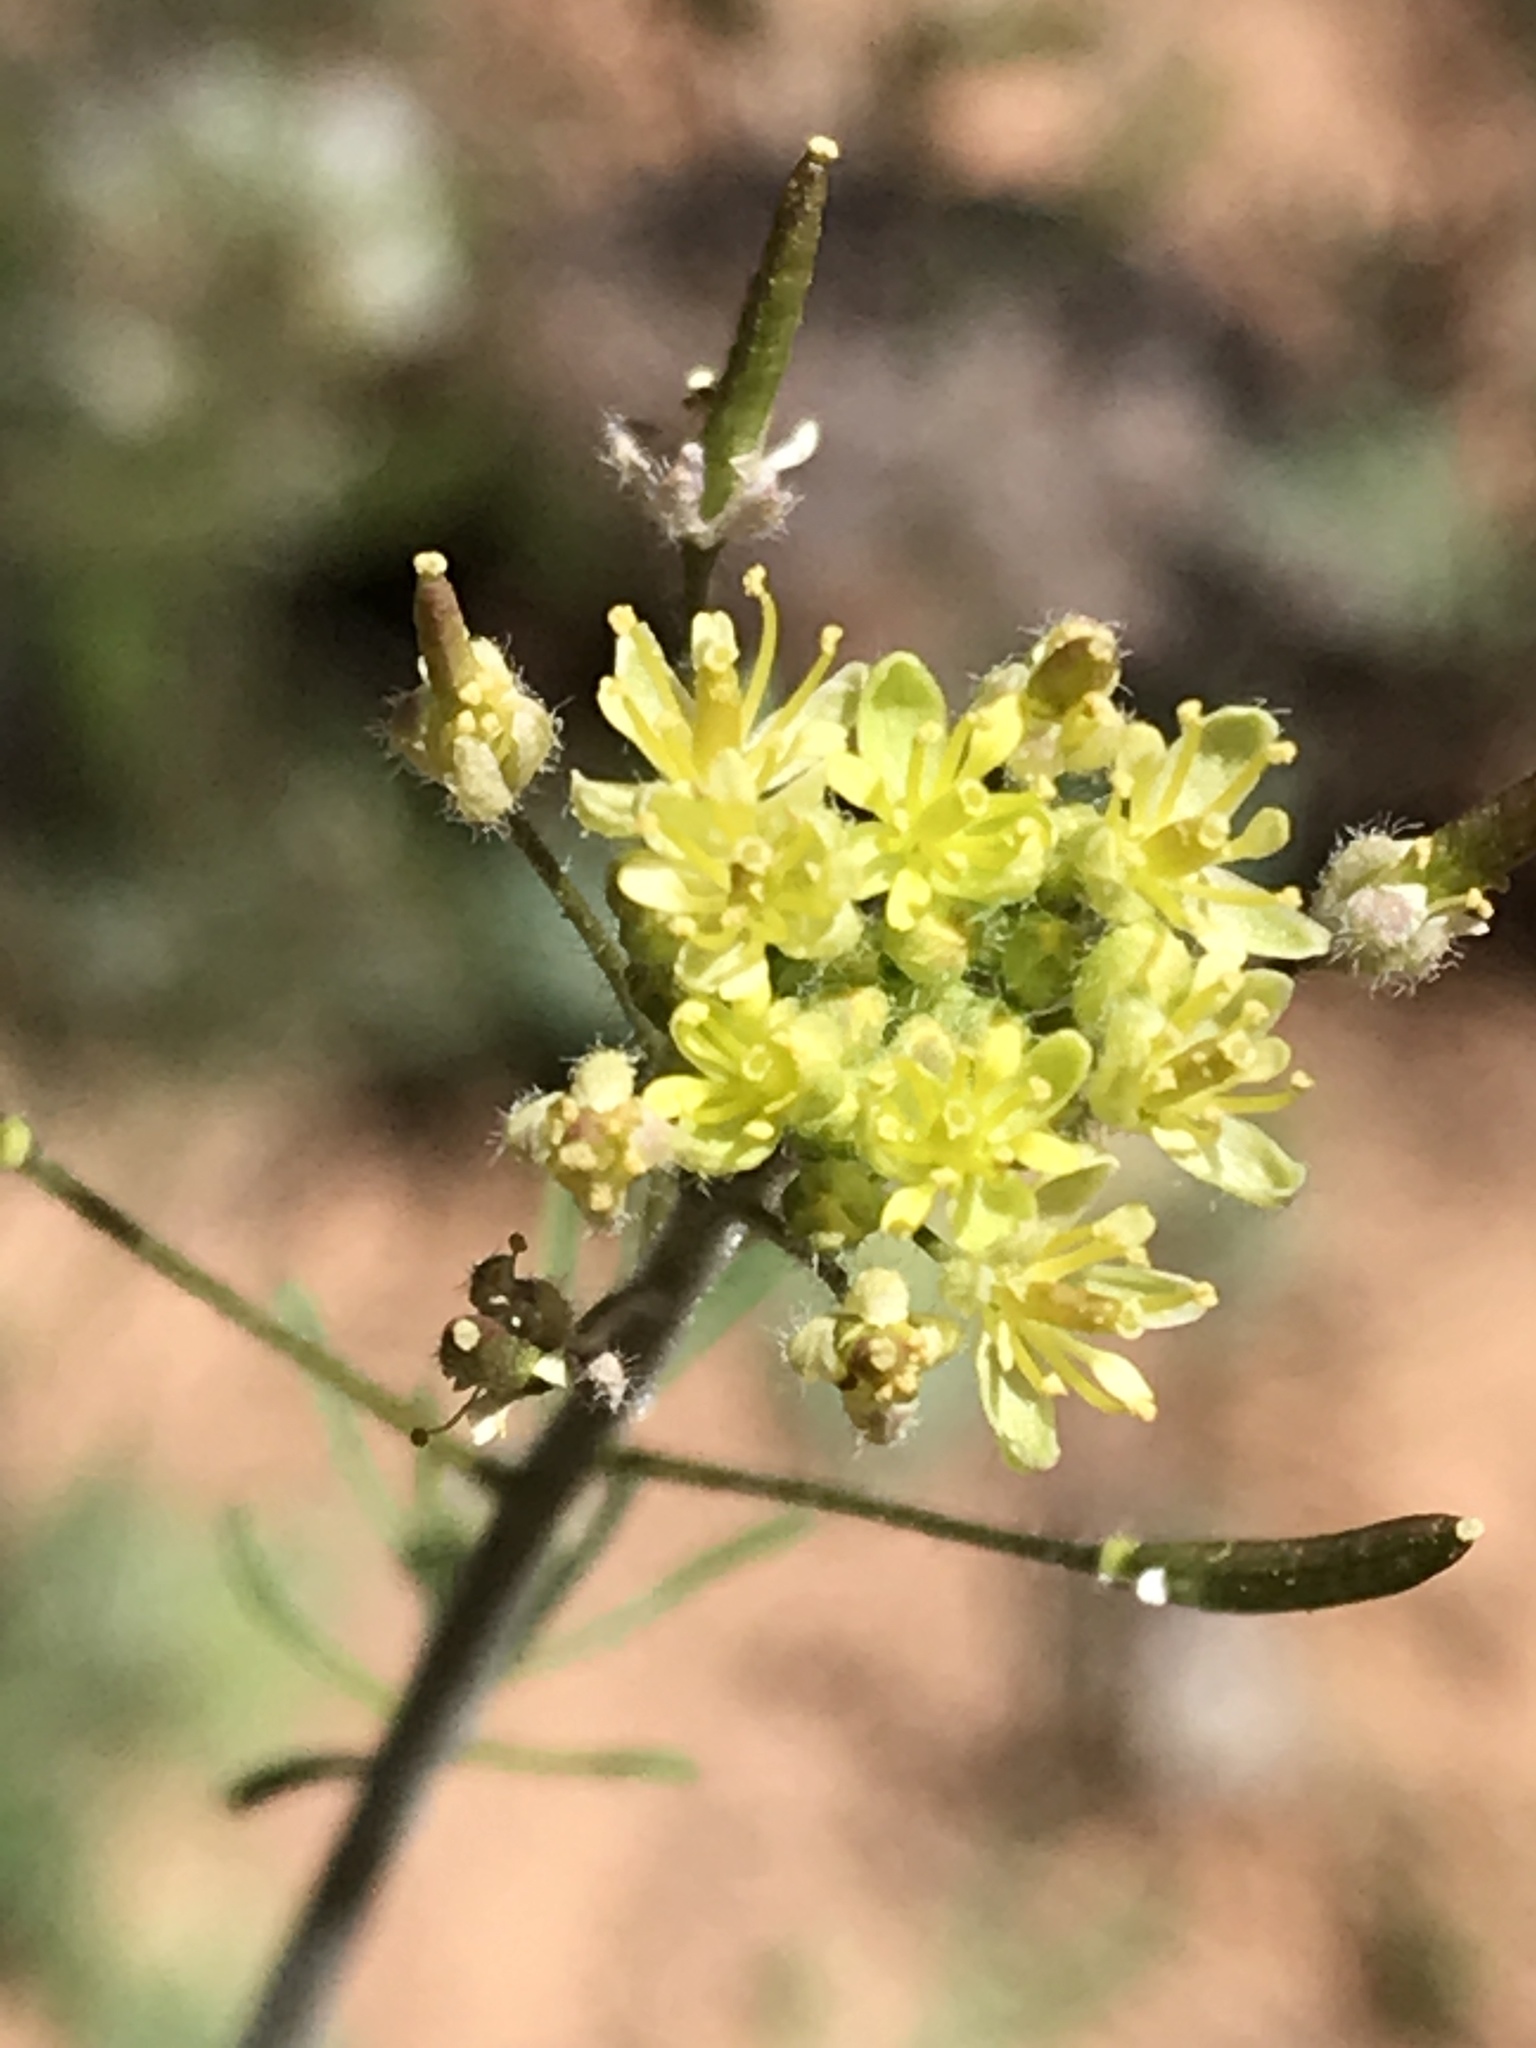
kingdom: Plantae
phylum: Tracheophyta
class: Magnoliopsida
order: Brassicales
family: Brassicaceae
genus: Descurainia
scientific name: Descurainia sophia
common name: Flixweed
